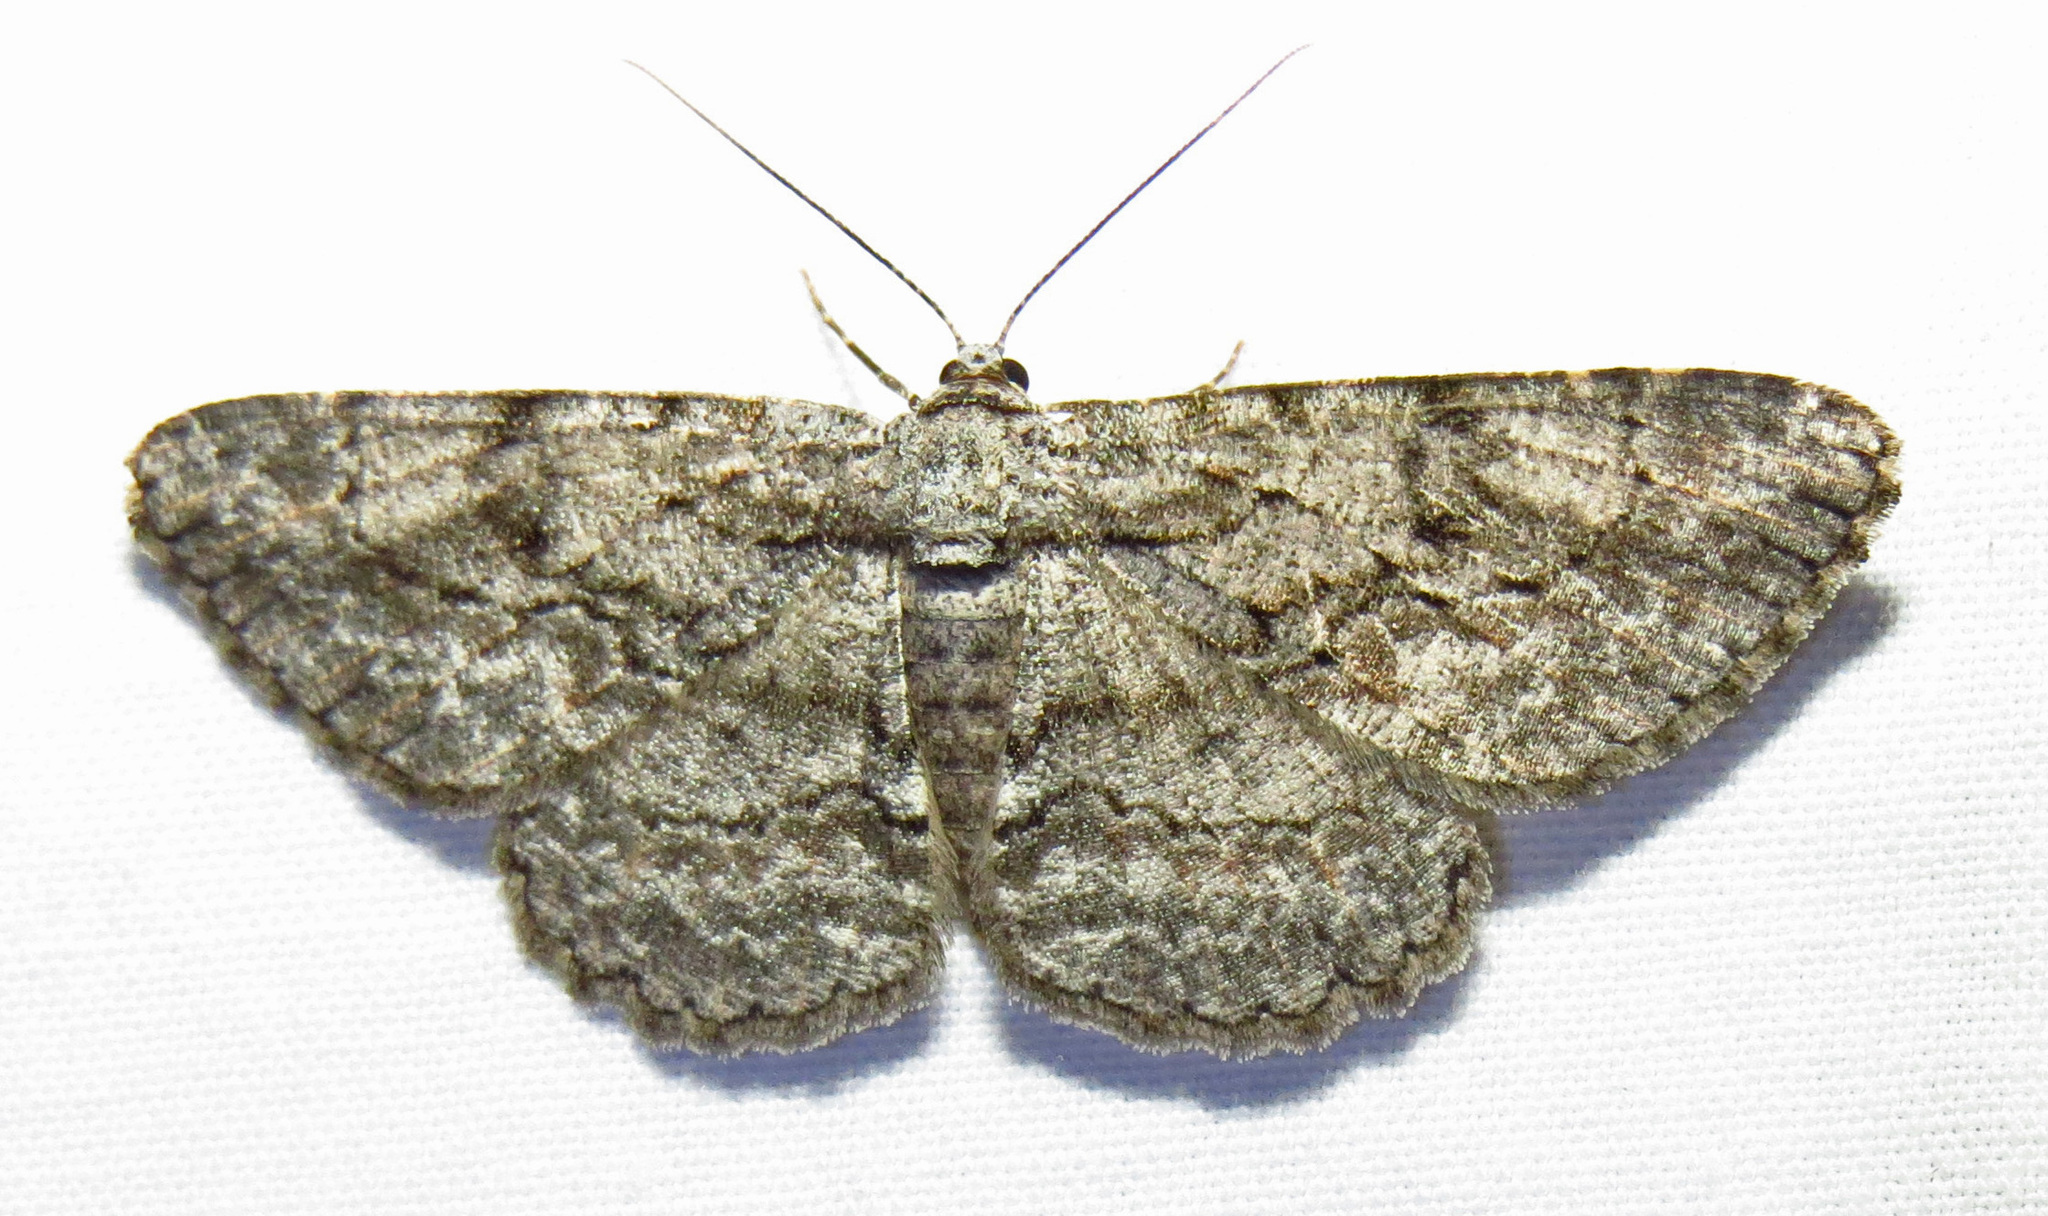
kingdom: Animalia
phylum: Arthropoda
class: Insecta
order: Lepidoptera
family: Geometridae
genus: Anavitrinella
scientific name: Anavitrinella pampinaria
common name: Common gray
